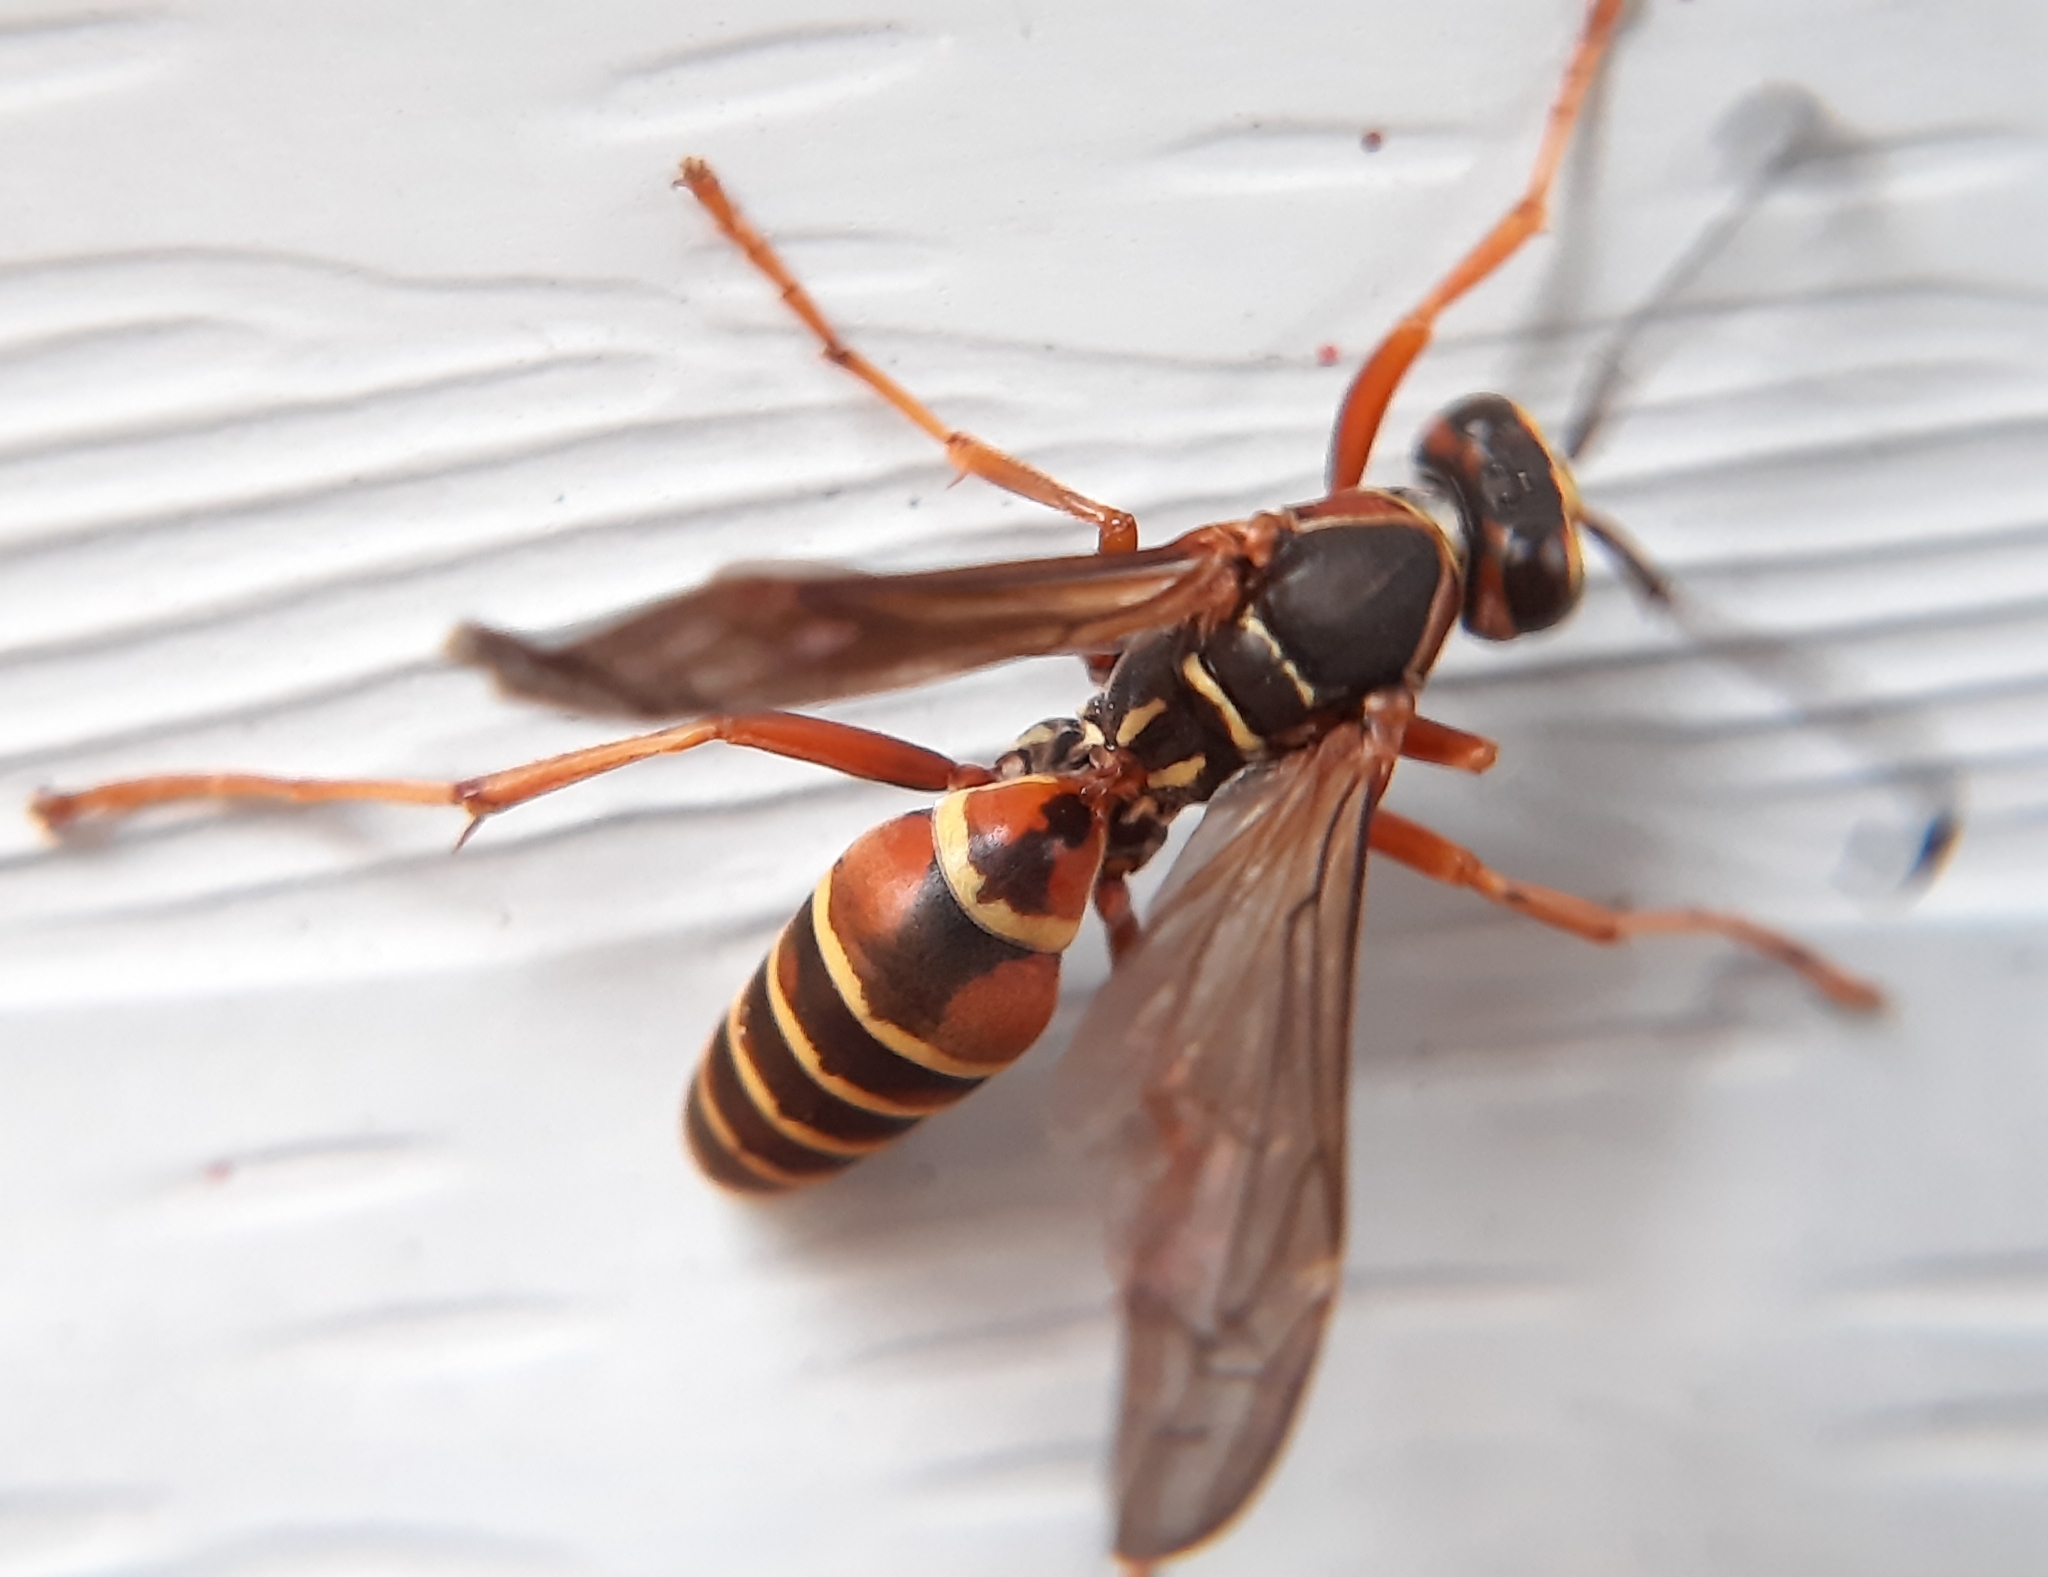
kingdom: Animalia
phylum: Arthropoda
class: Insecta
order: Hymenoptera
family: Eumenidae
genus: Polistes
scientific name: Polistes fuscatus
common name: Dark paper wasp
